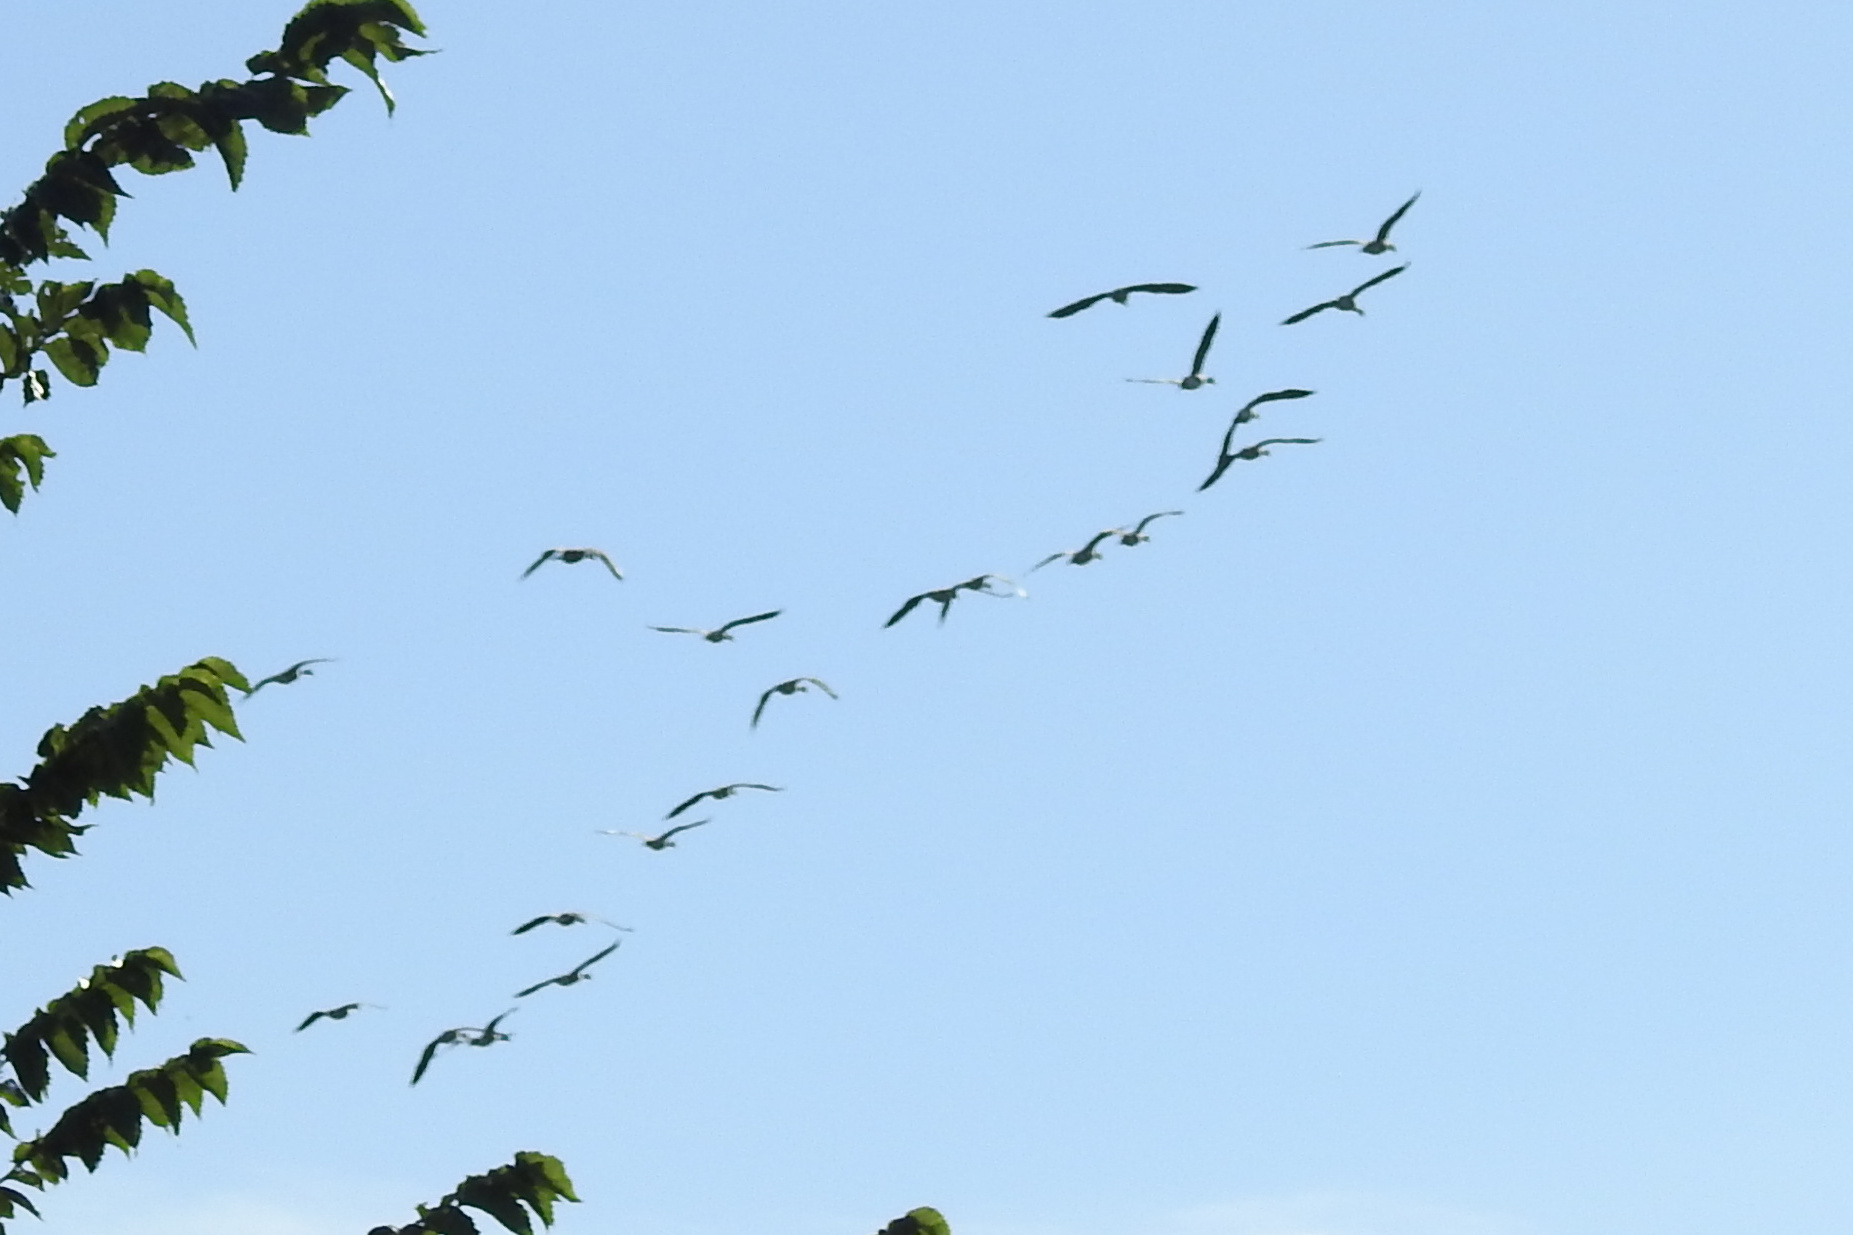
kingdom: Animalia
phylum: Chordata
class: Aves
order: Anseriformes
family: Anatidae
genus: Branta
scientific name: Branta canadensis
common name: Canada goose
